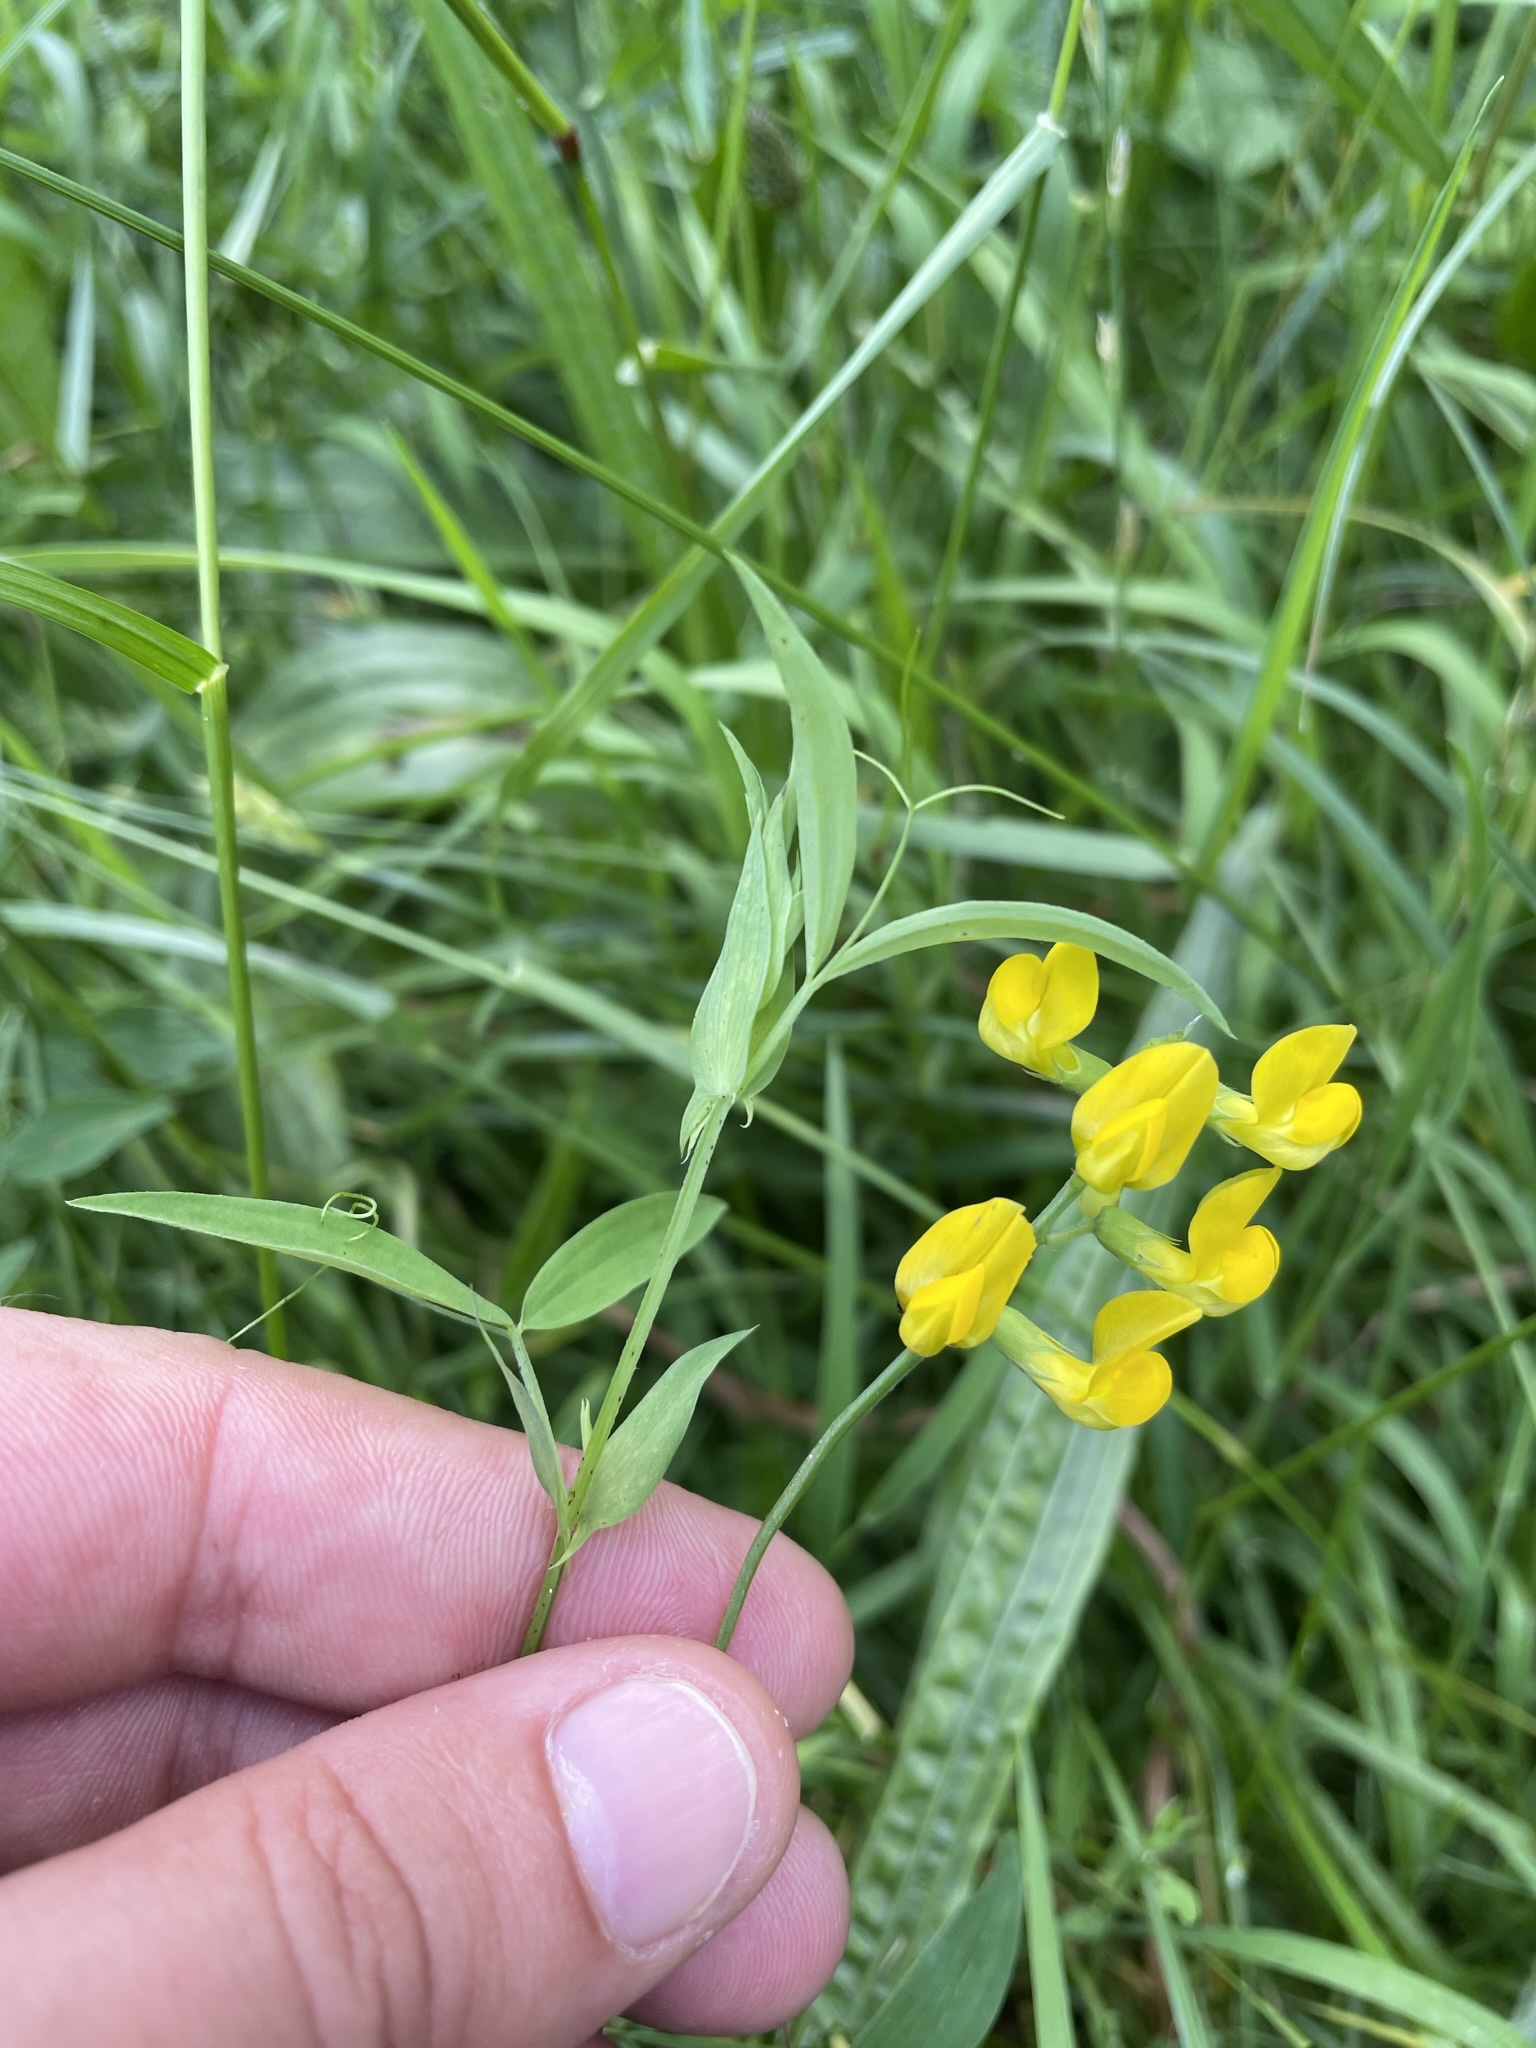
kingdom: Plantae
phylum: Tracheophyta
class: Magnoliopsida
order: Fabales
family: Fabaceae
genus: Lathyrus
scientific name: Lathyrus pratensis
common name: Meadow vetchling
